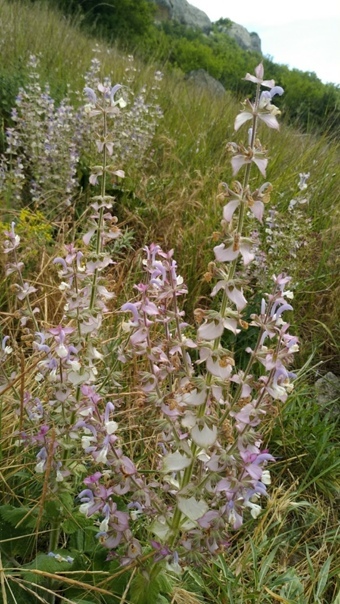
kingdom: Plantae
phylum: Tracheophyta
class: Magnoliopsida
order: Lamiales
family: Lamiaceae
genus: Salvia
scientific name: Salvia sclarea
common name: Clary
